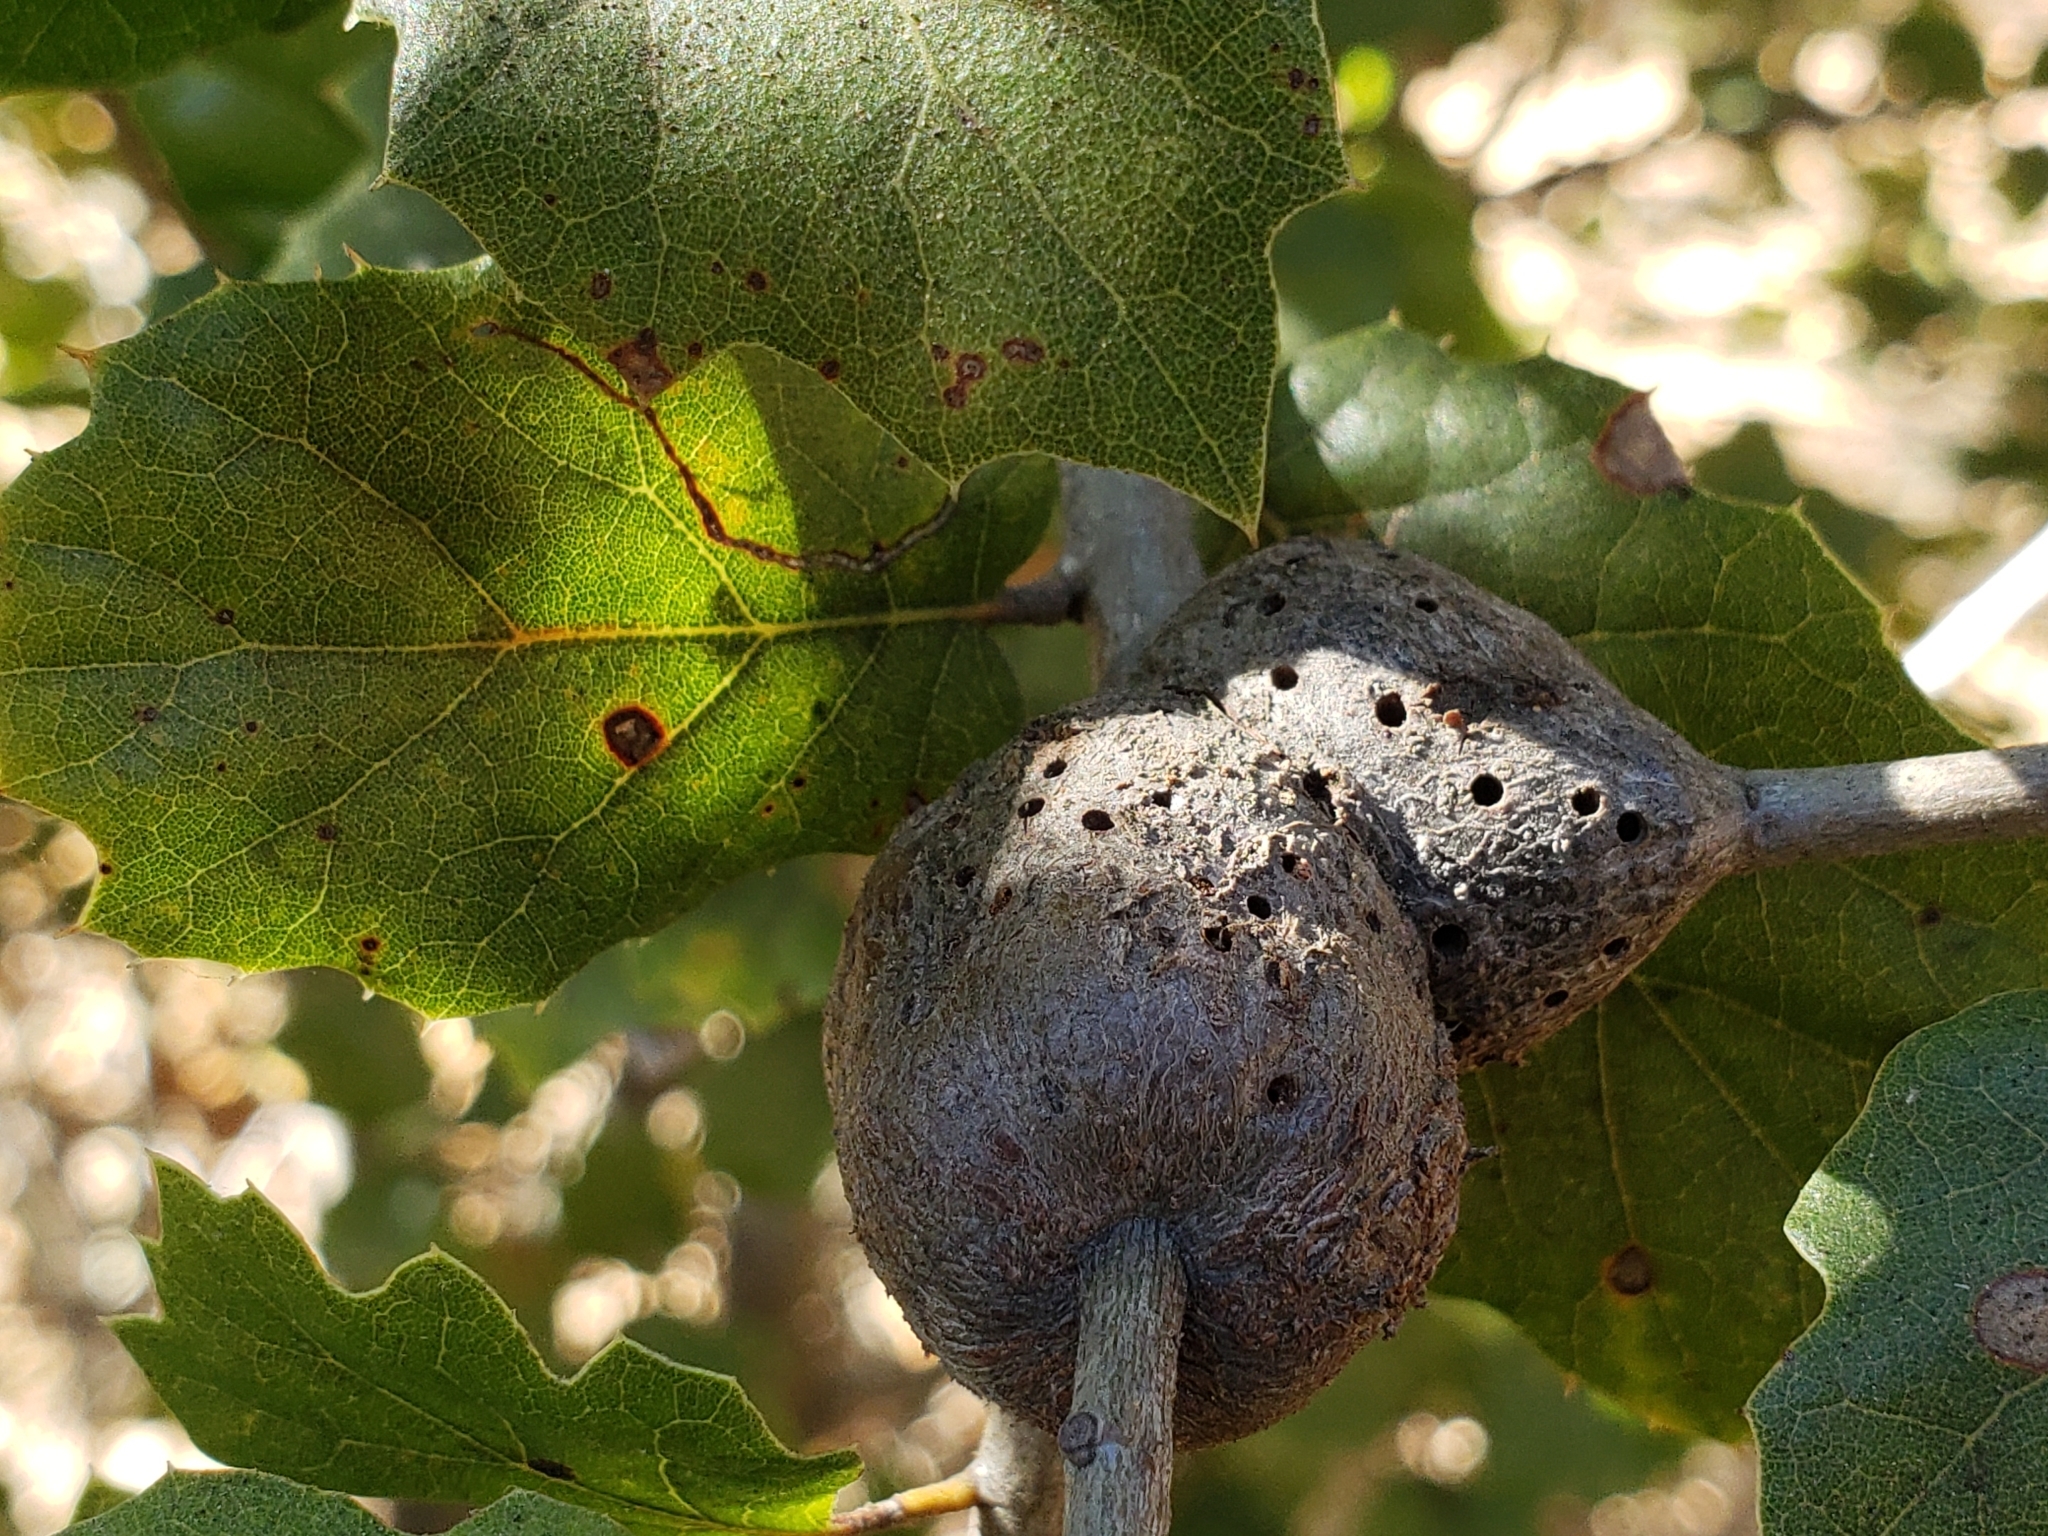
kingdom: Animalia
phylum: Arthropoda
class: Insecta
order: Hymenoptera
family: Cynipidae
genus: Callirhytis
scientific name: Callirhytis
